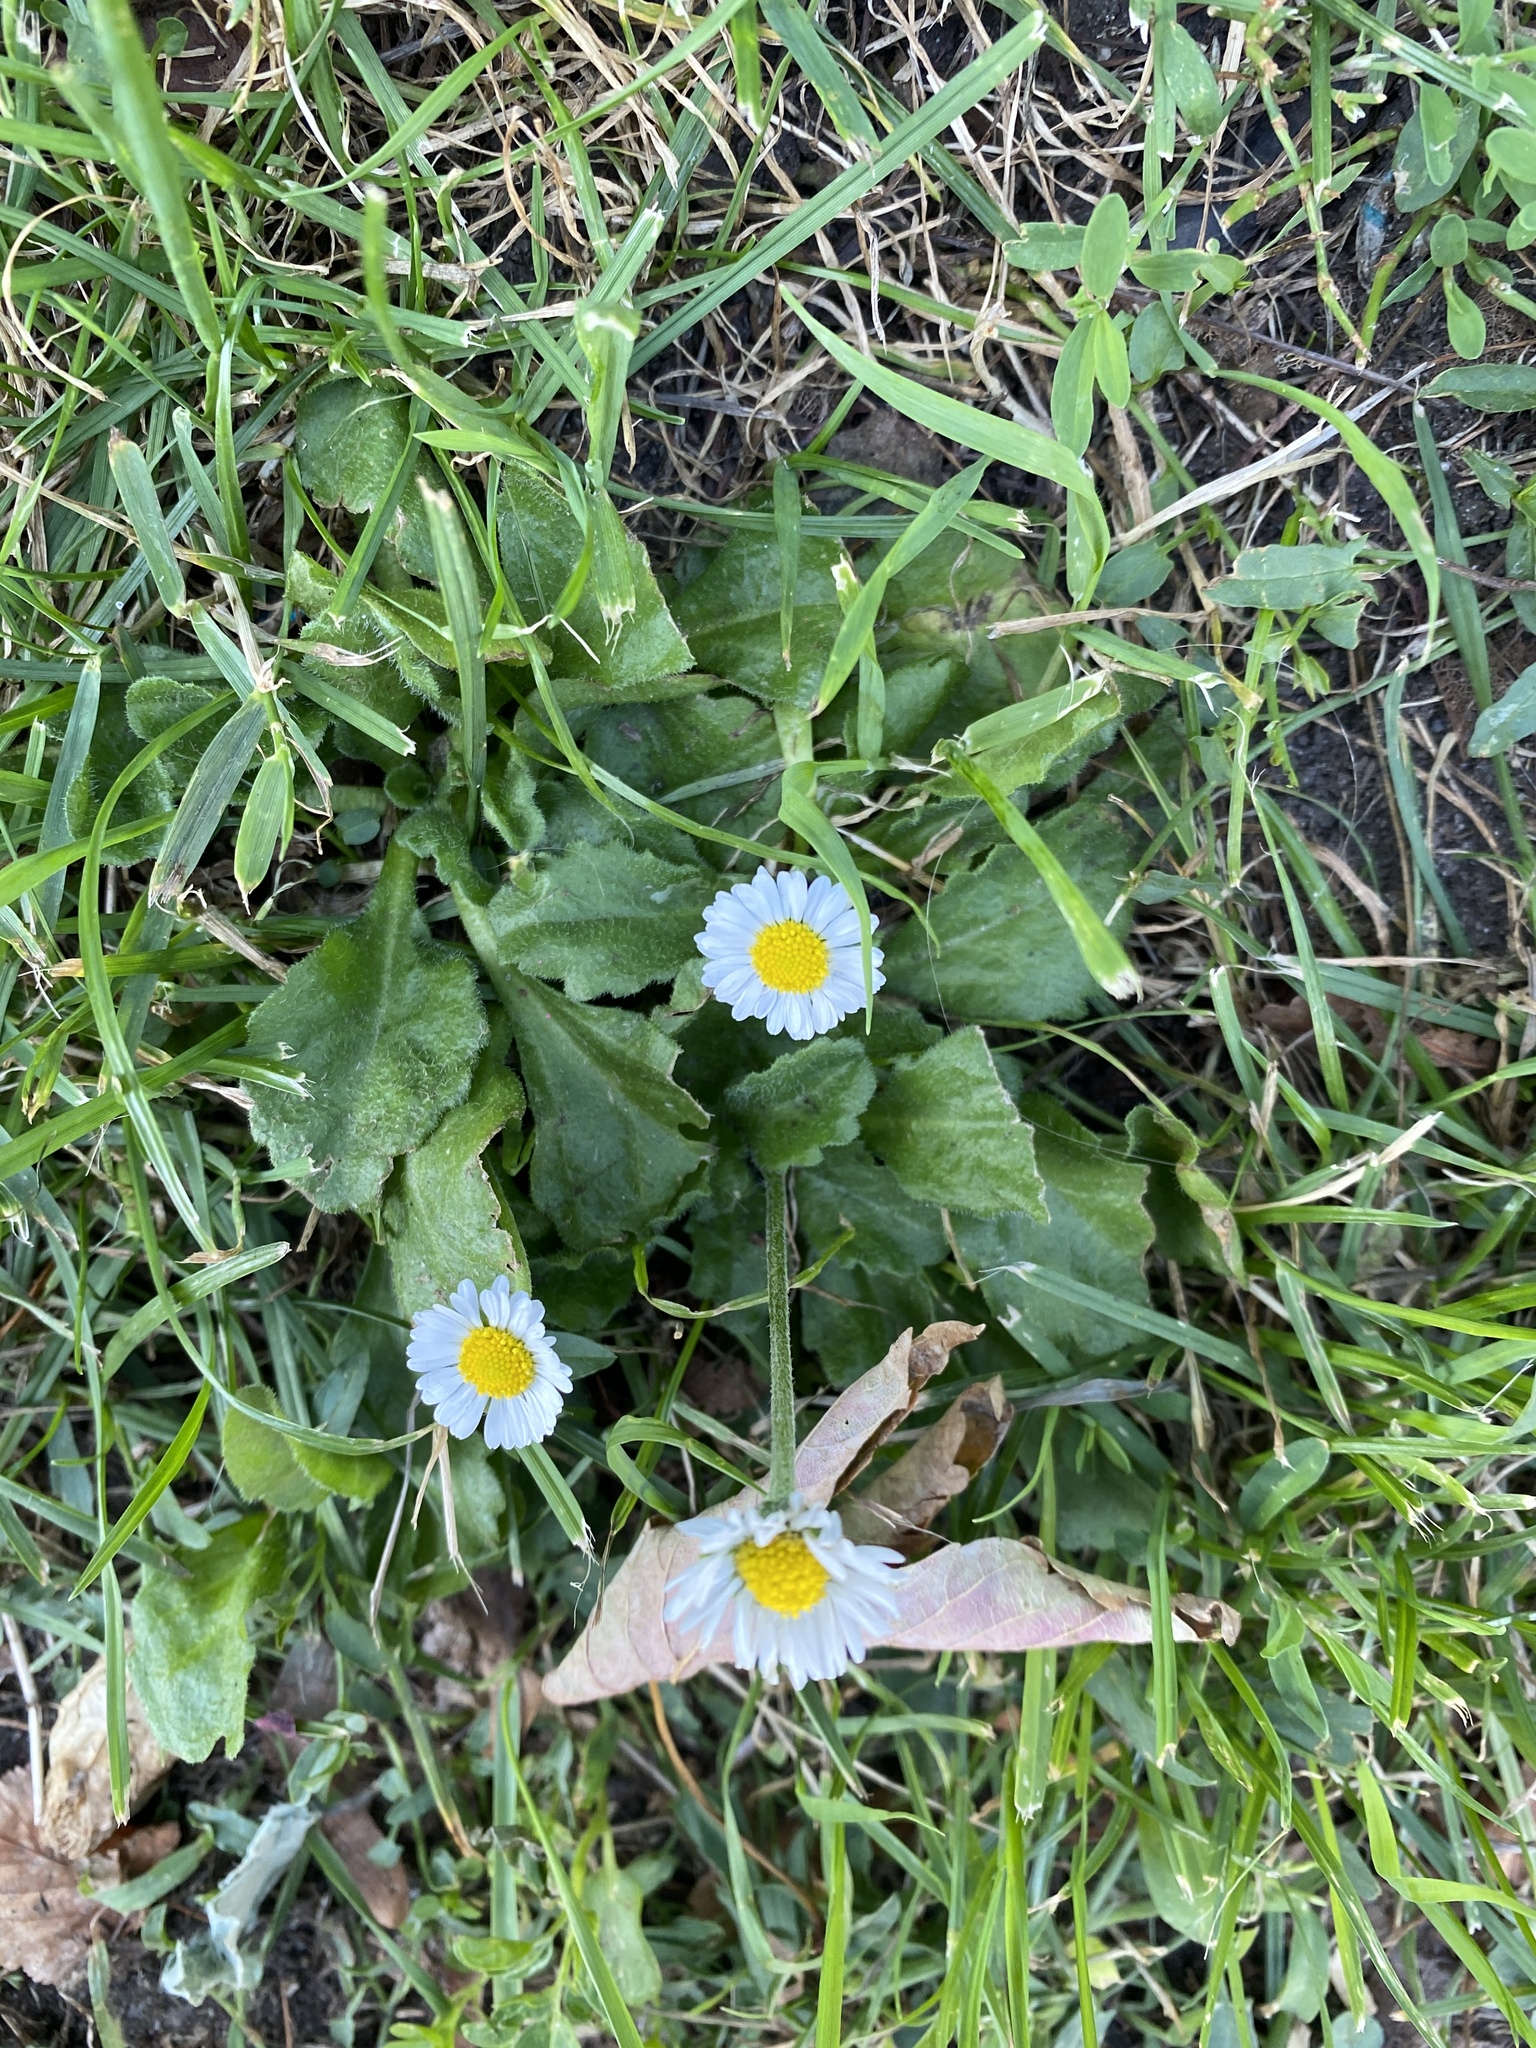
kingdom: Plantae
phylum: Tracheophyta
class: Magnoliopsida
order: Asterales
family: Asteraceae
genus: Bellis
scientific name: Bellis perennis
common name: Lawndaisy
